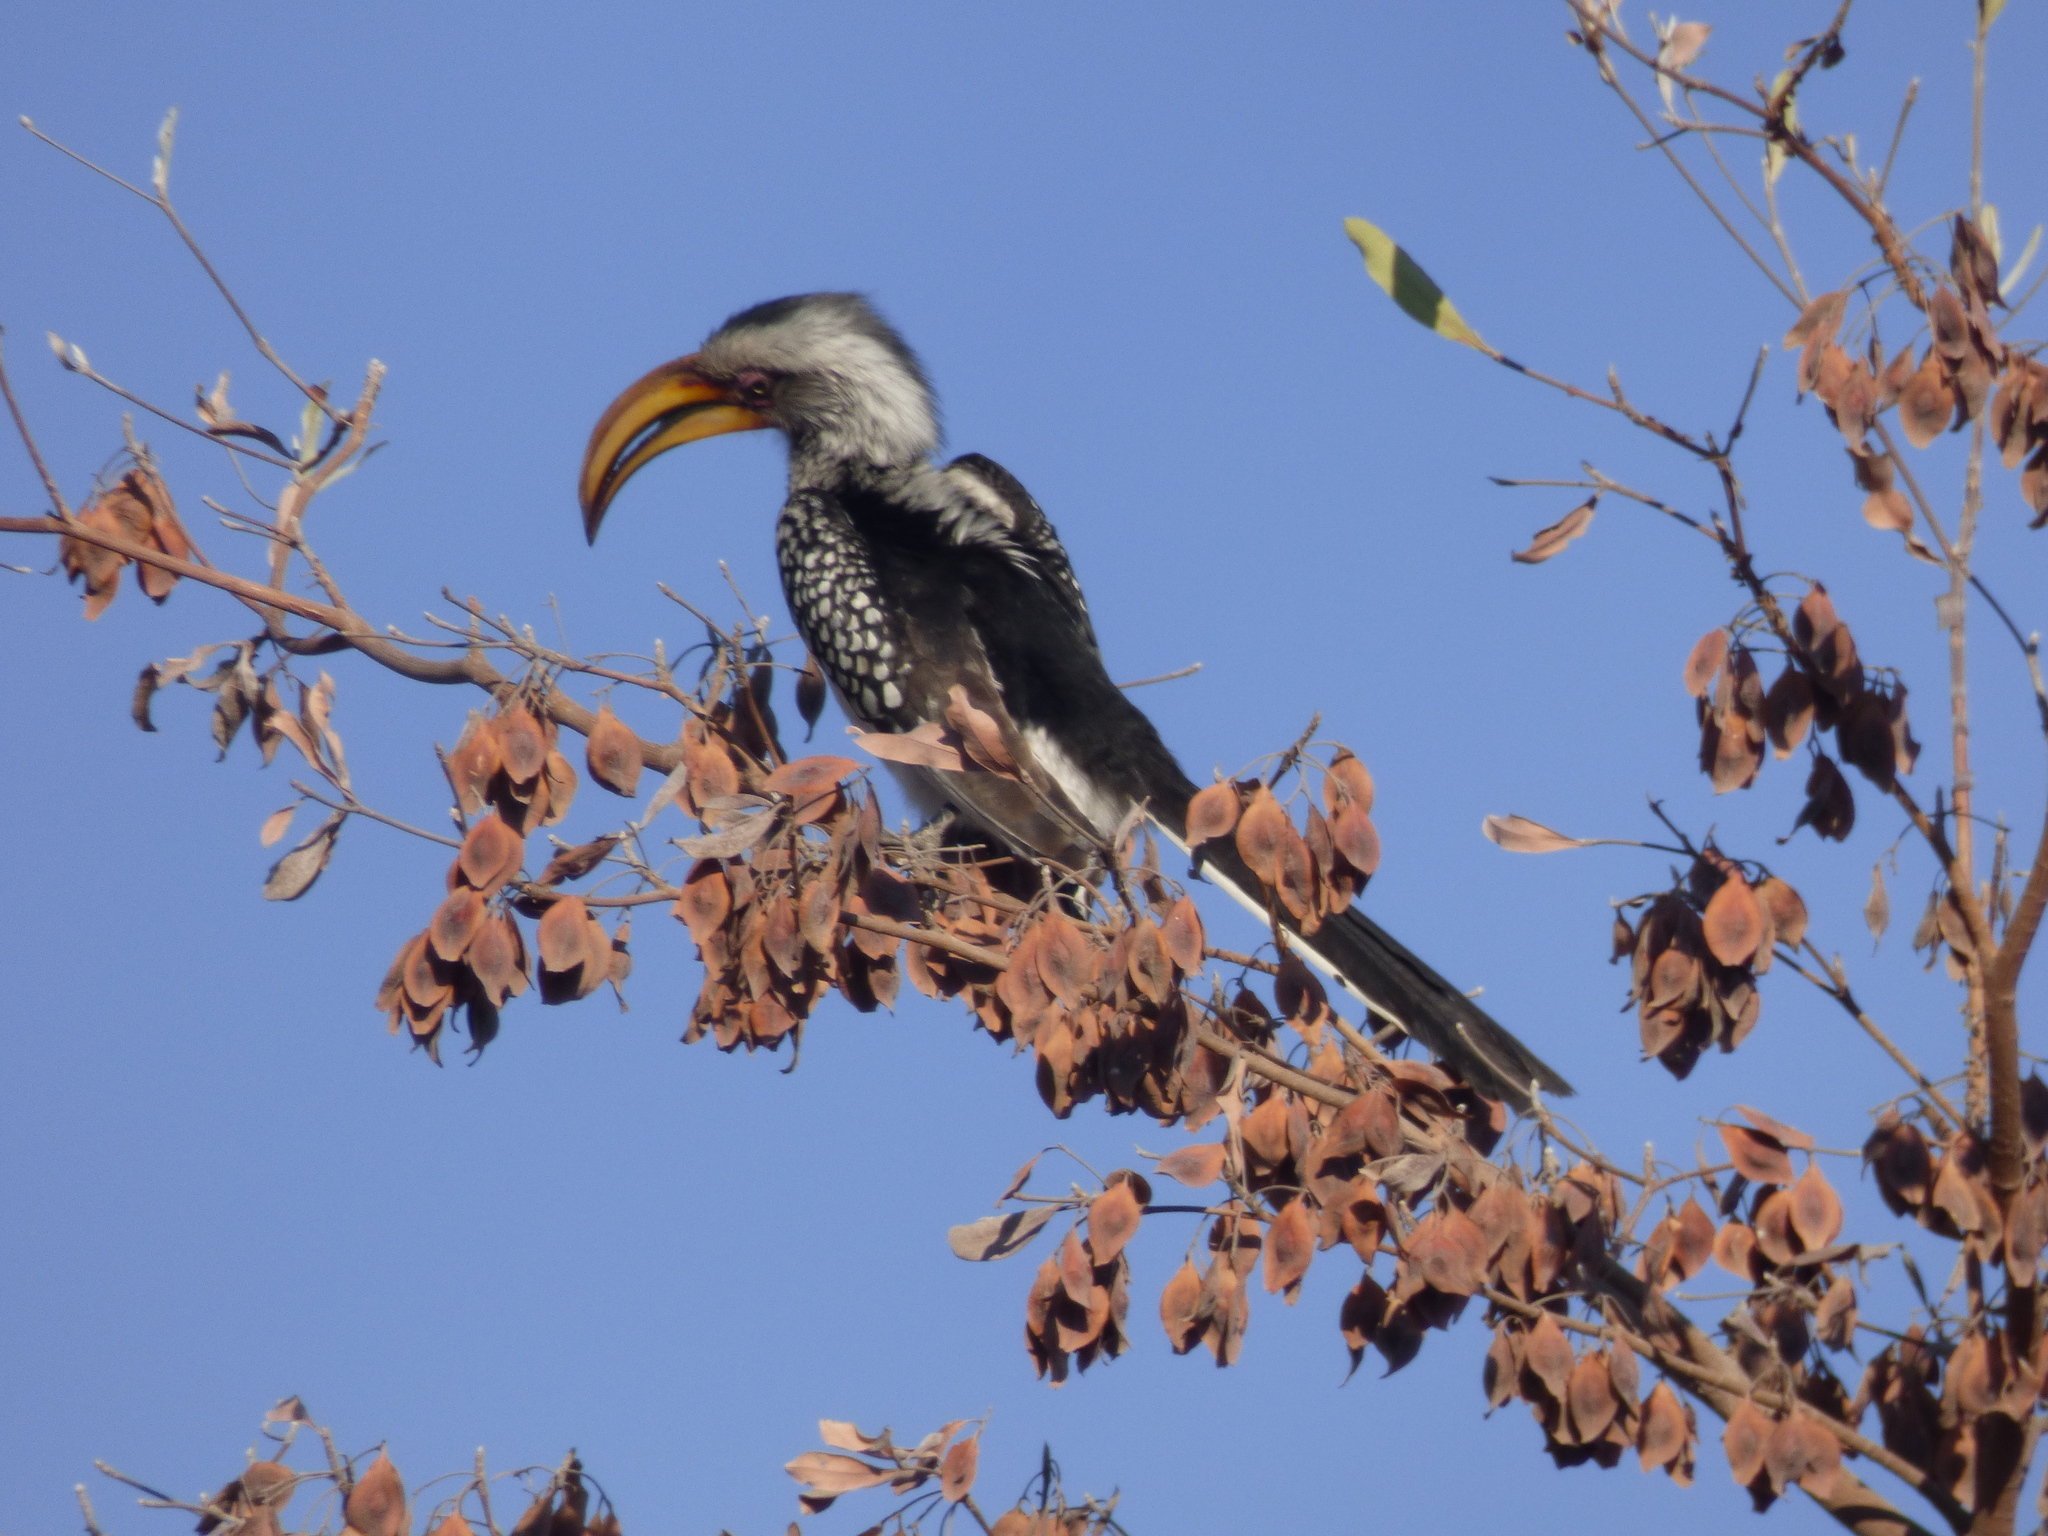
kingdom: Animalia
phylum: Chordata
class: Aves
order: Bucerotiformes
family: Bucerotidae
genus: Tockus
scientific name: Tockus leucomelas
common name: Southern yellow-billed hornbill
